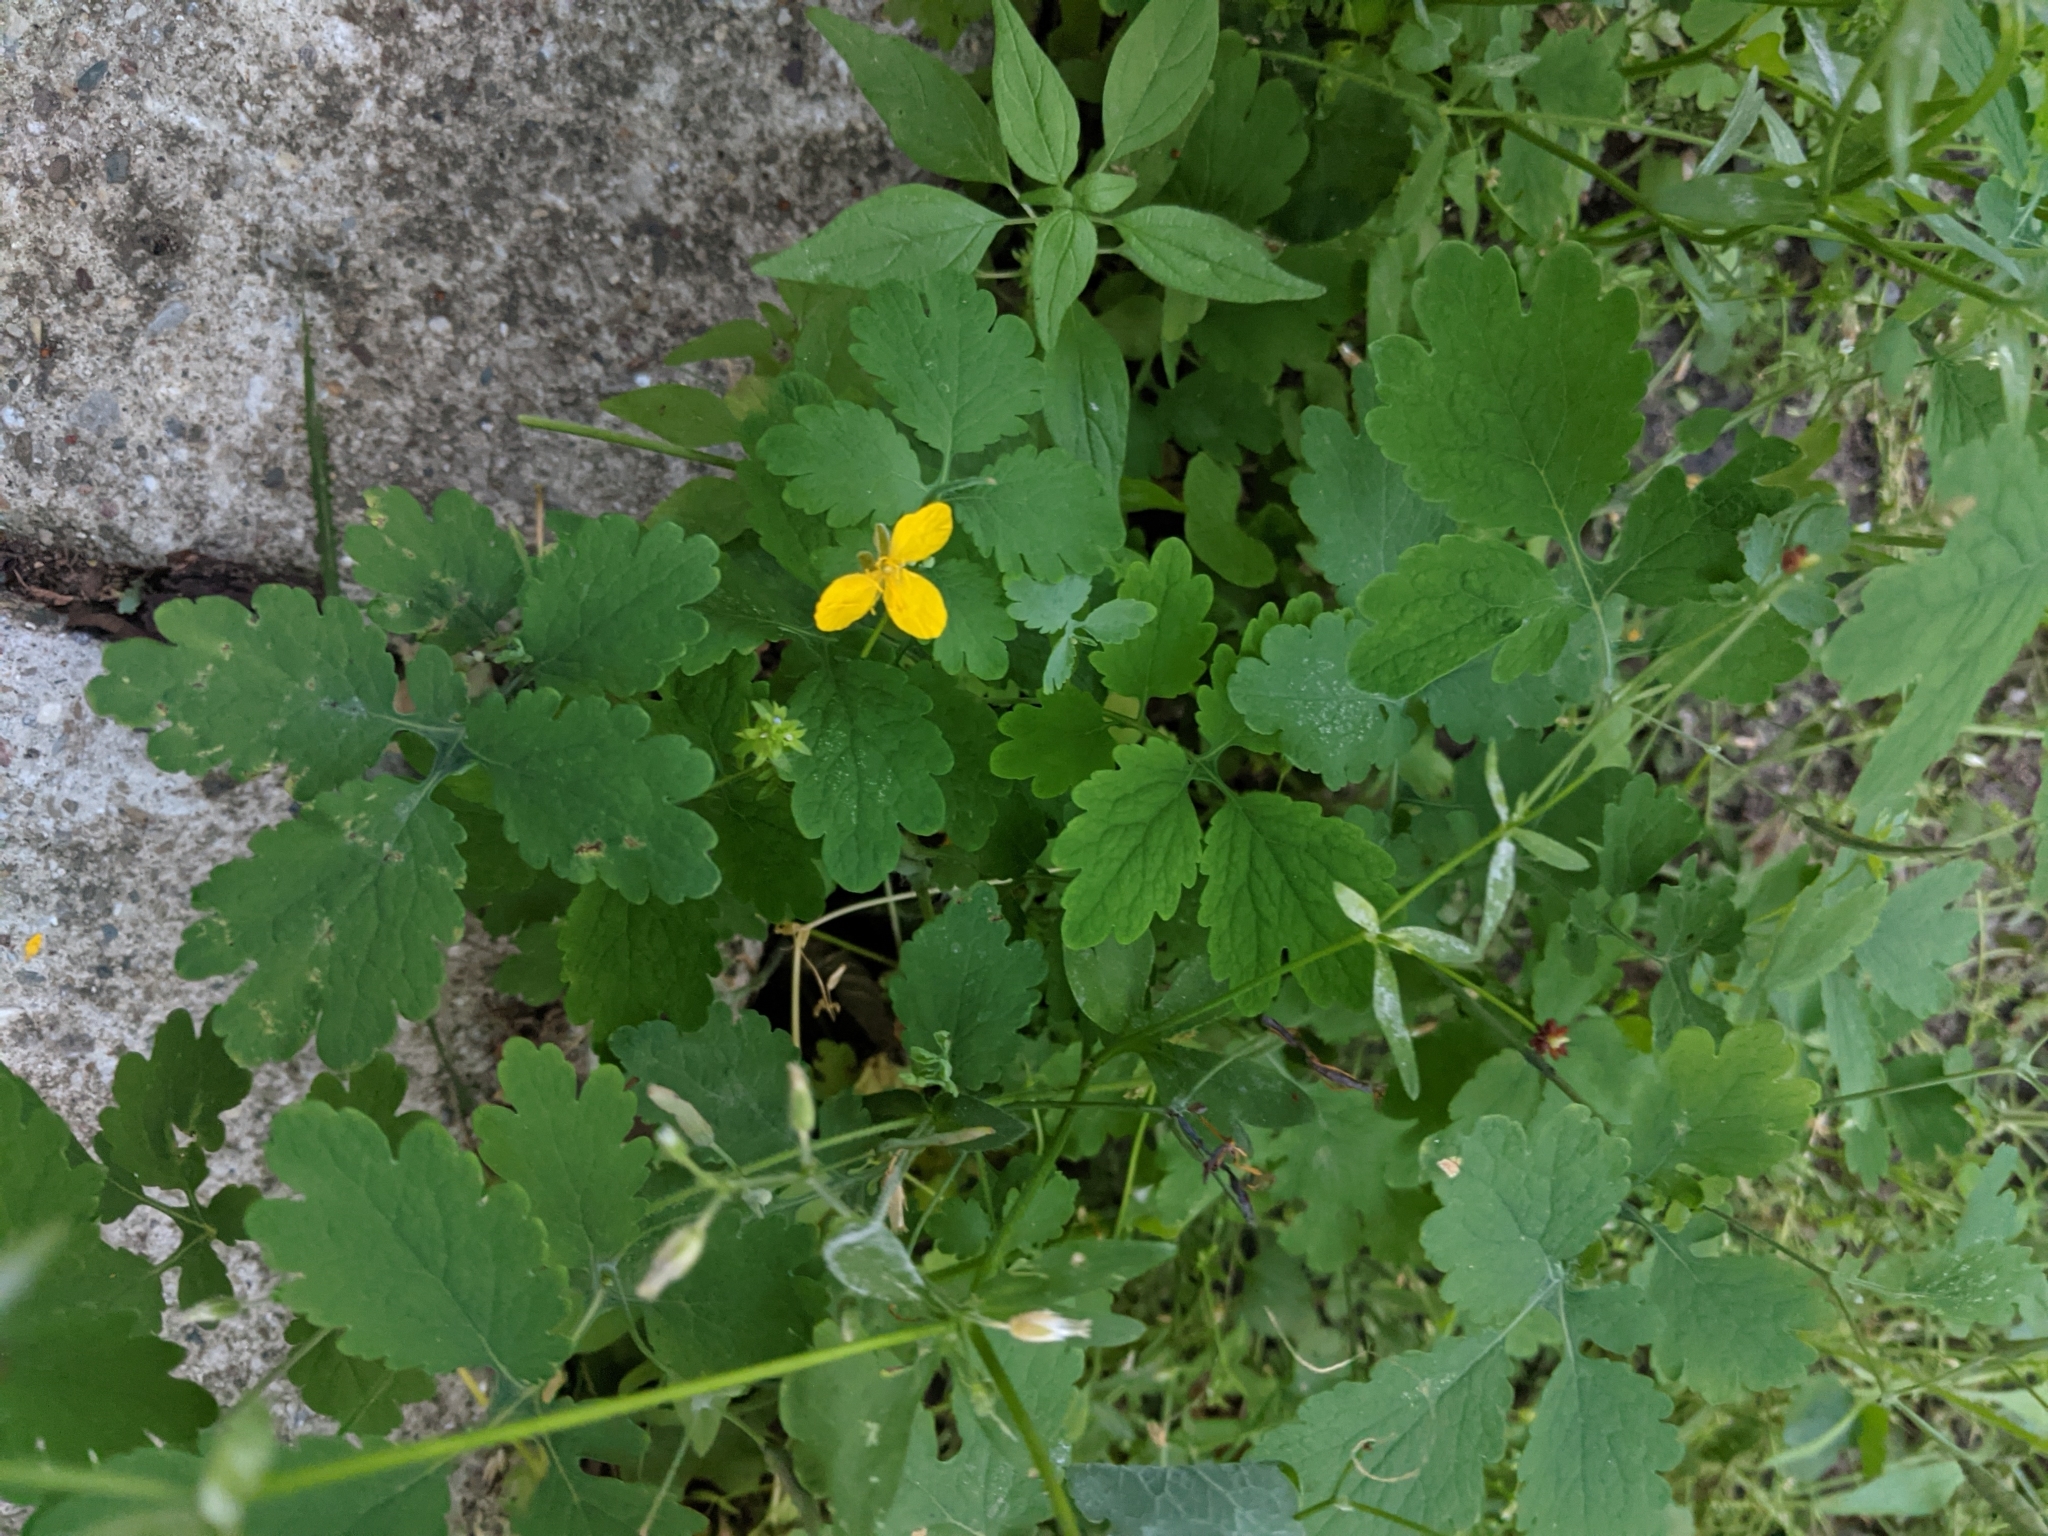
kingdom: Plantae
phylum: Tracheophyta
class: Magnoliopsida
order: Ranunculales
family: Papaveraceae
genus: Chelidonium
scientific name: Chelidonium majus
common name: Greater celandine
